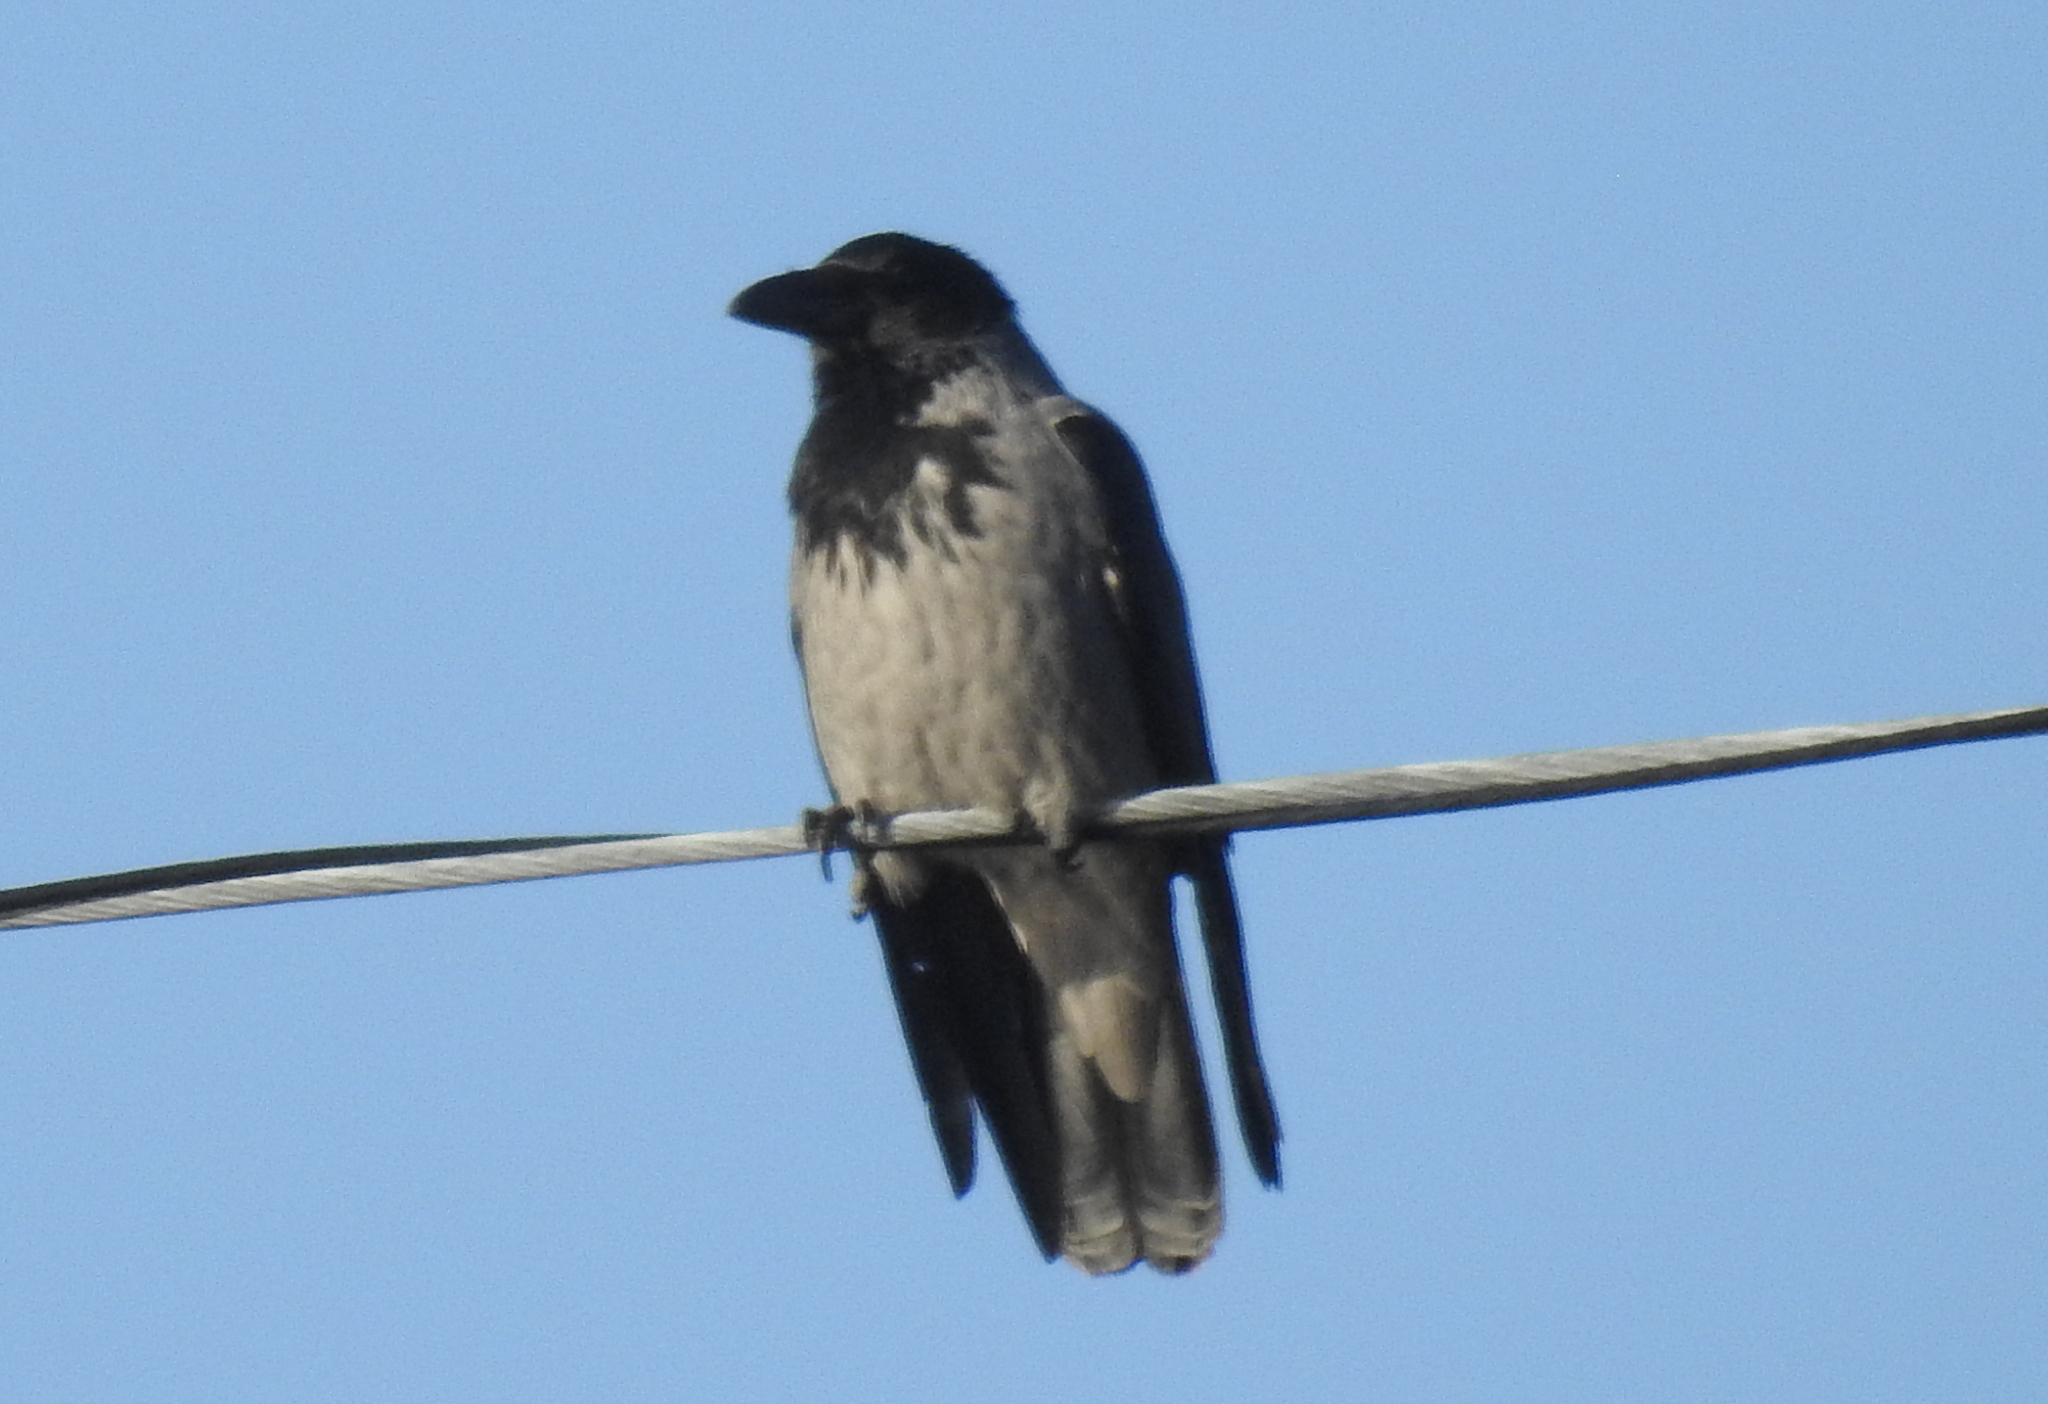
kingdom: Animalia
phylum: Chordata
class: Aves
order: Passeriformes
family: Corvidae
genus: Corvus
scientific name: Corvus cornix
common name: Hooded crow
